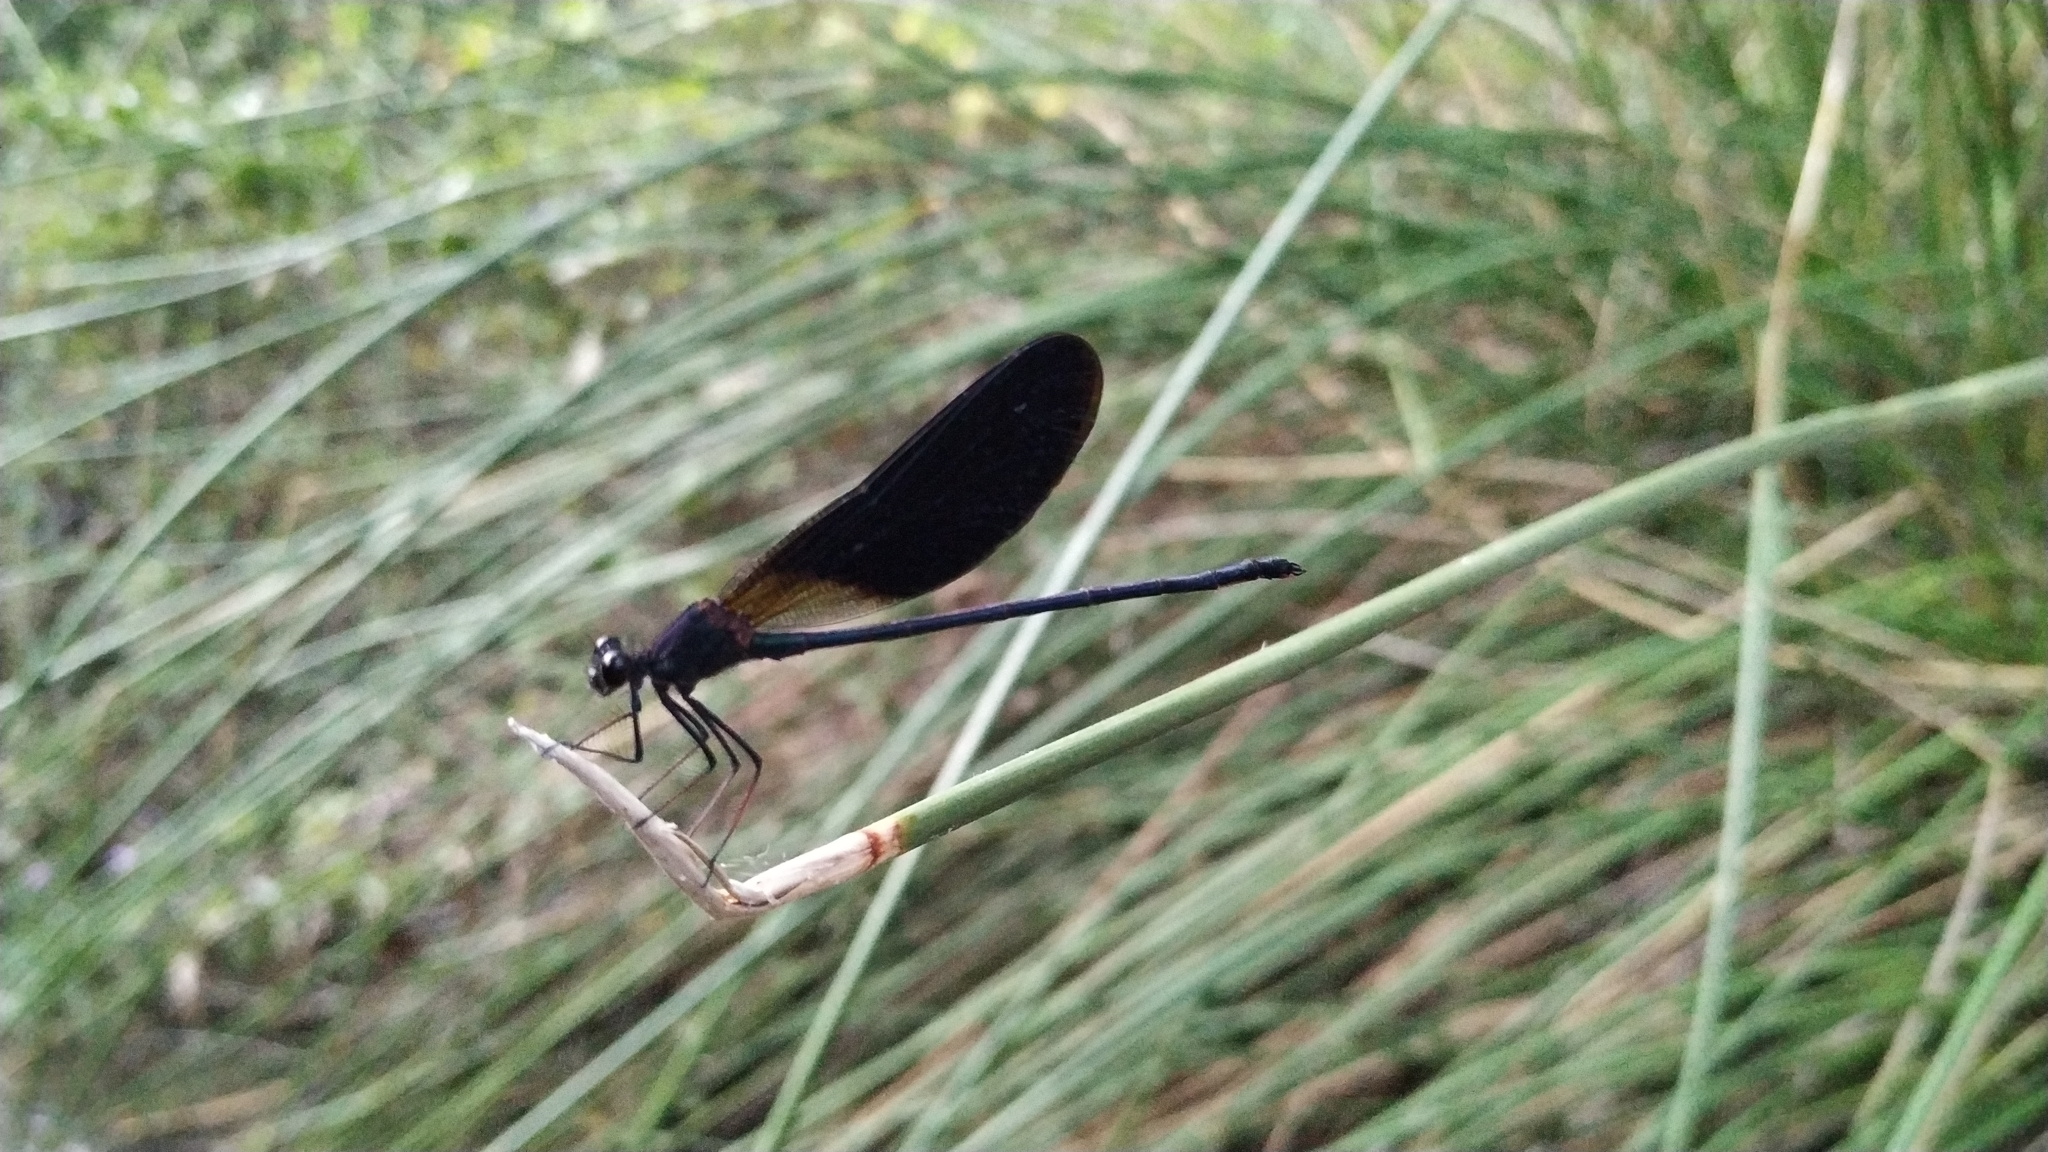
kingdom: Animalia
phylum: Arthropoda
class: Insecta
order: Odonata
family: Calopterygidae
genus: Calopteryx
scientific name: Calopteryx haemorrhoidalis
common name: Copper demoiselle
